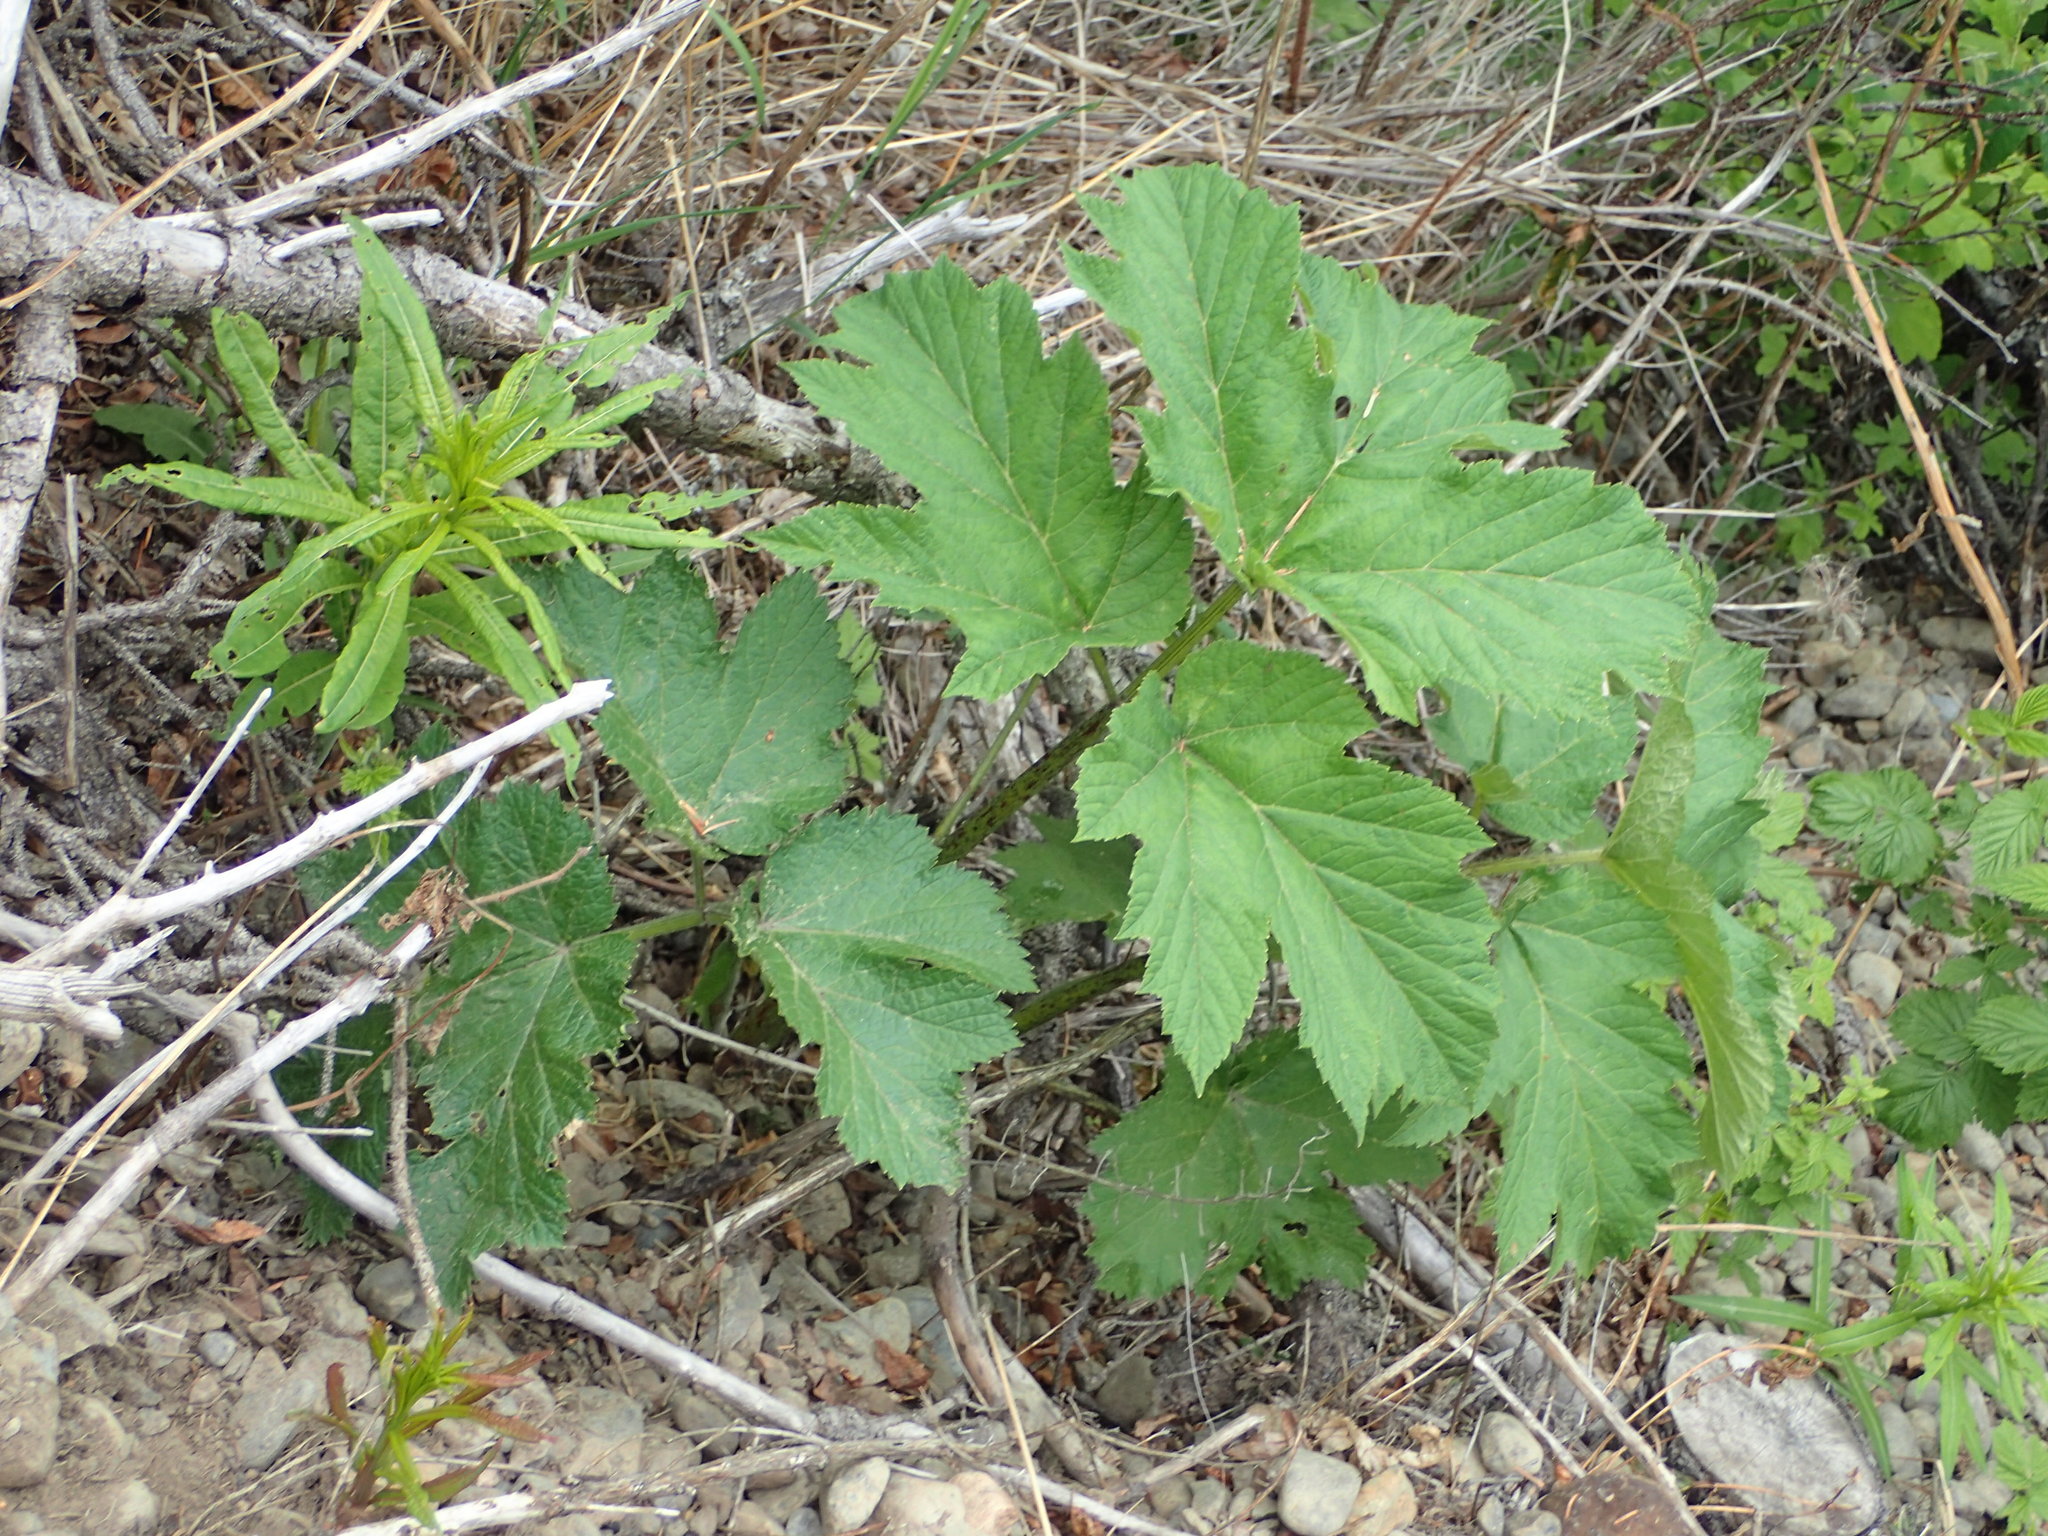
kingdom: Plantae
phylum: Tracheophyta
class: Magnoliopsida
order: Apiales
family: Apiaceae
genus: Heracleum
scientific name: Heracleum maximum
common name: American cow parsnip
